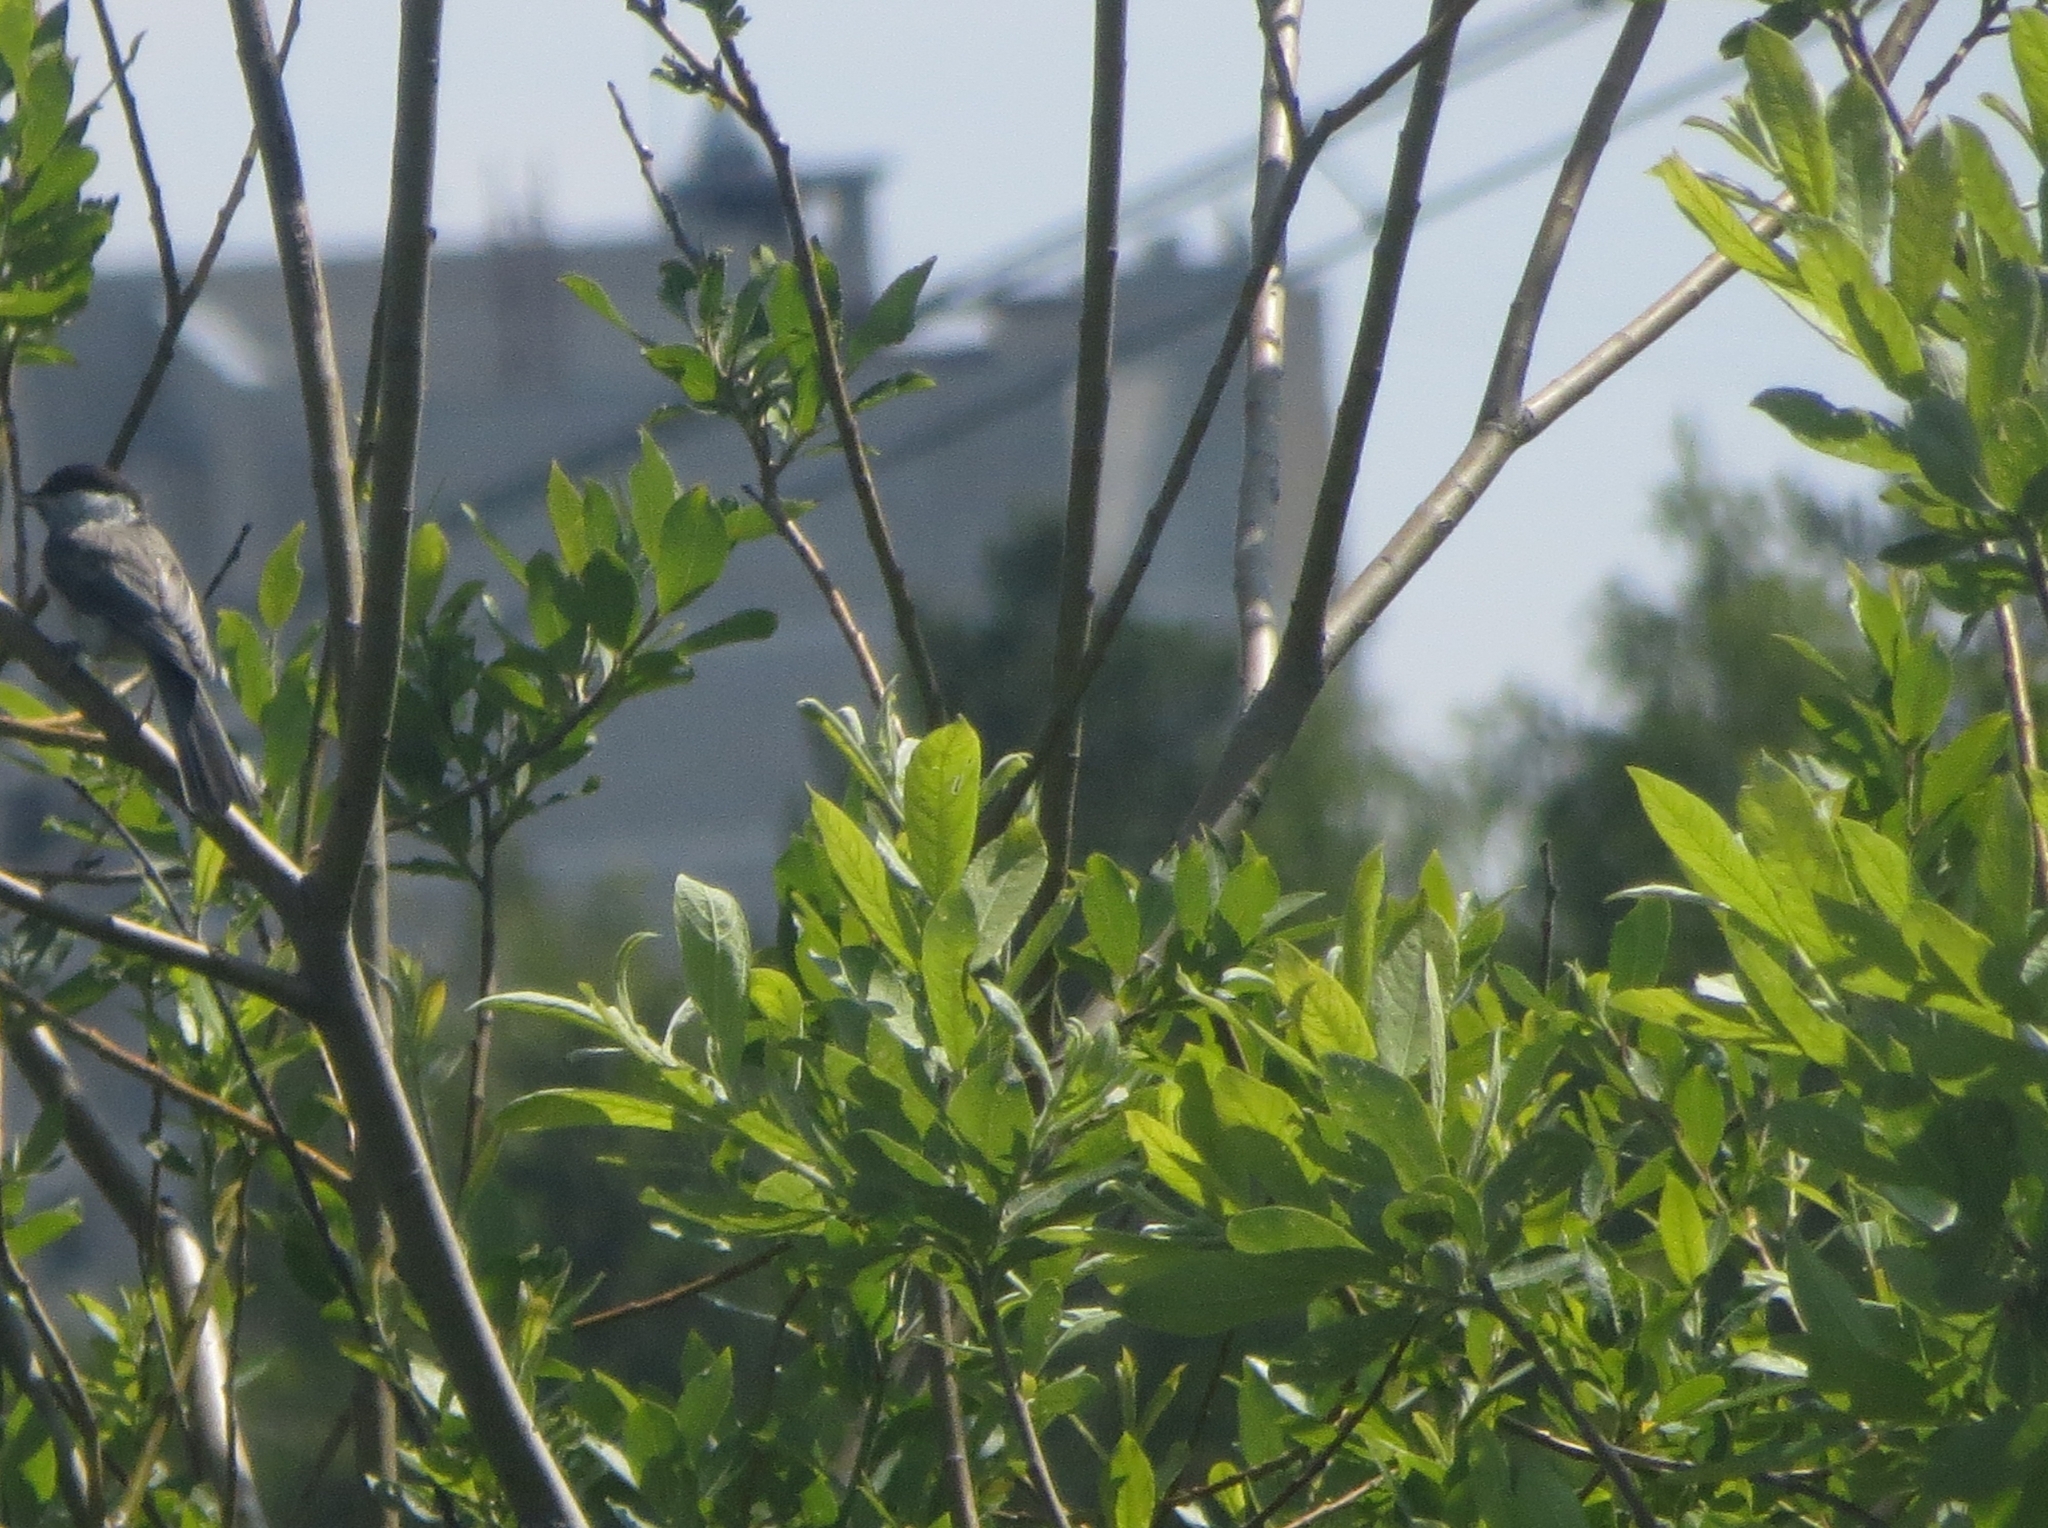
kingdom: Animalia
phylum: Chordata
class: Aves
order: Passeriformes
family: Paridae
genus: Poecile
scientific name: Poecile montanus
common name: Willow tit
